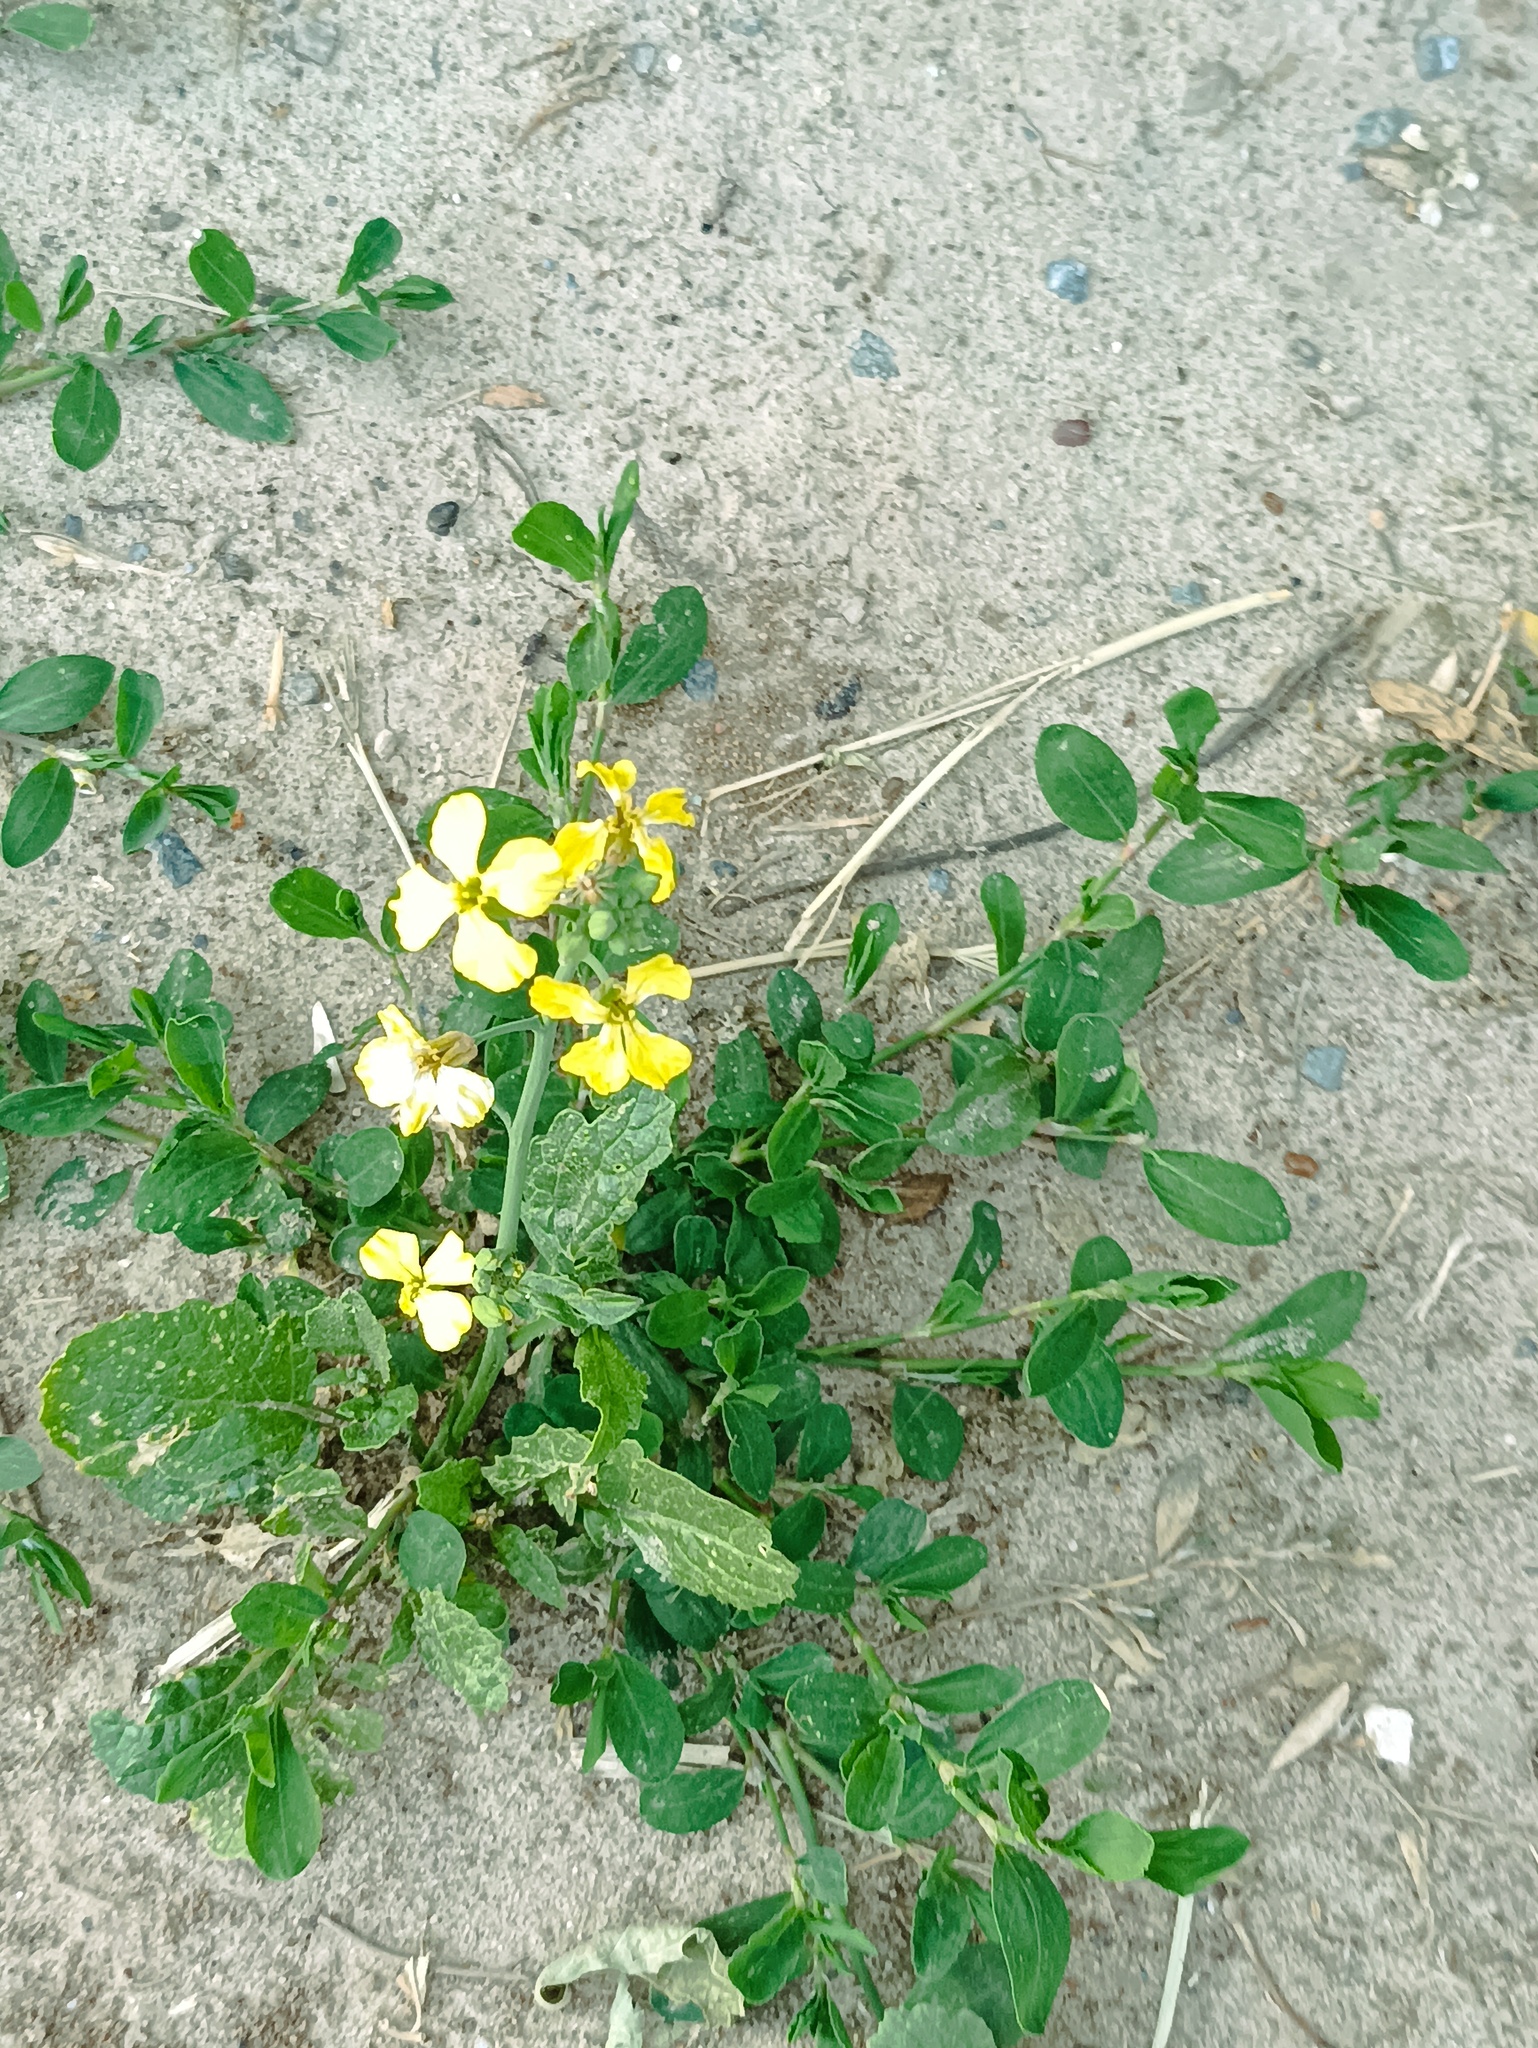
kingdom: Plantae
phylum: Tracheophyta
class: Magnoliopsida
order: Brassicales
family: Brassicaceae
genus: Raphanus
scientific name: Raphanus raphanistrum
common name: Wild radish
